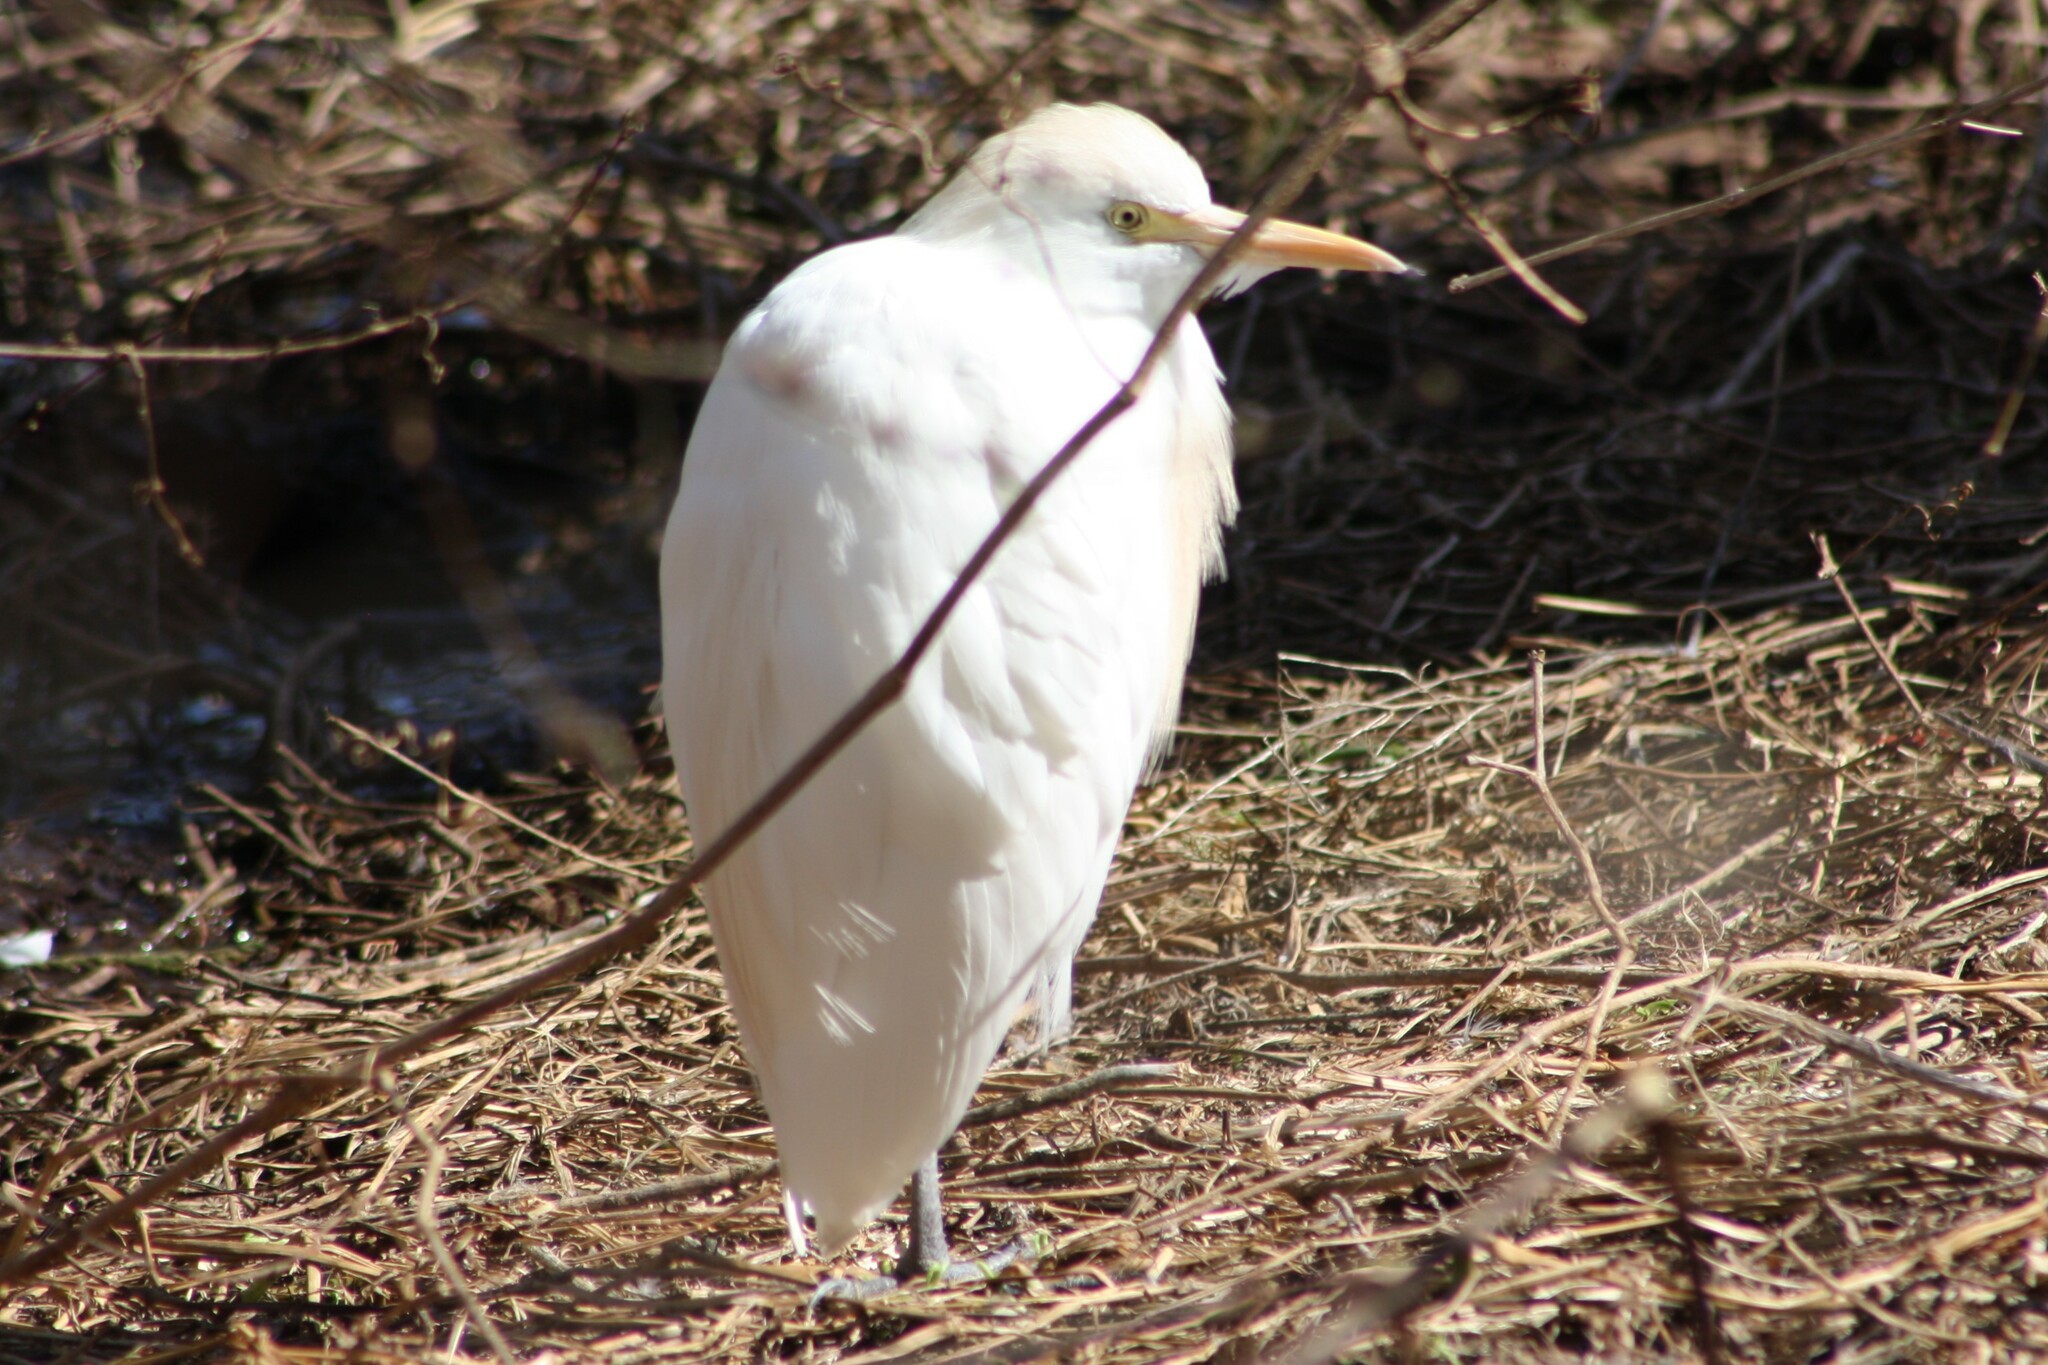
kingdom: Animalia
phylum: Chordata
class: Aves
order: Pelecaniformes
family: Ardeidae
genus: Bubulcus
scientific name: Bubulcus ibis
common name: Cattle egret
